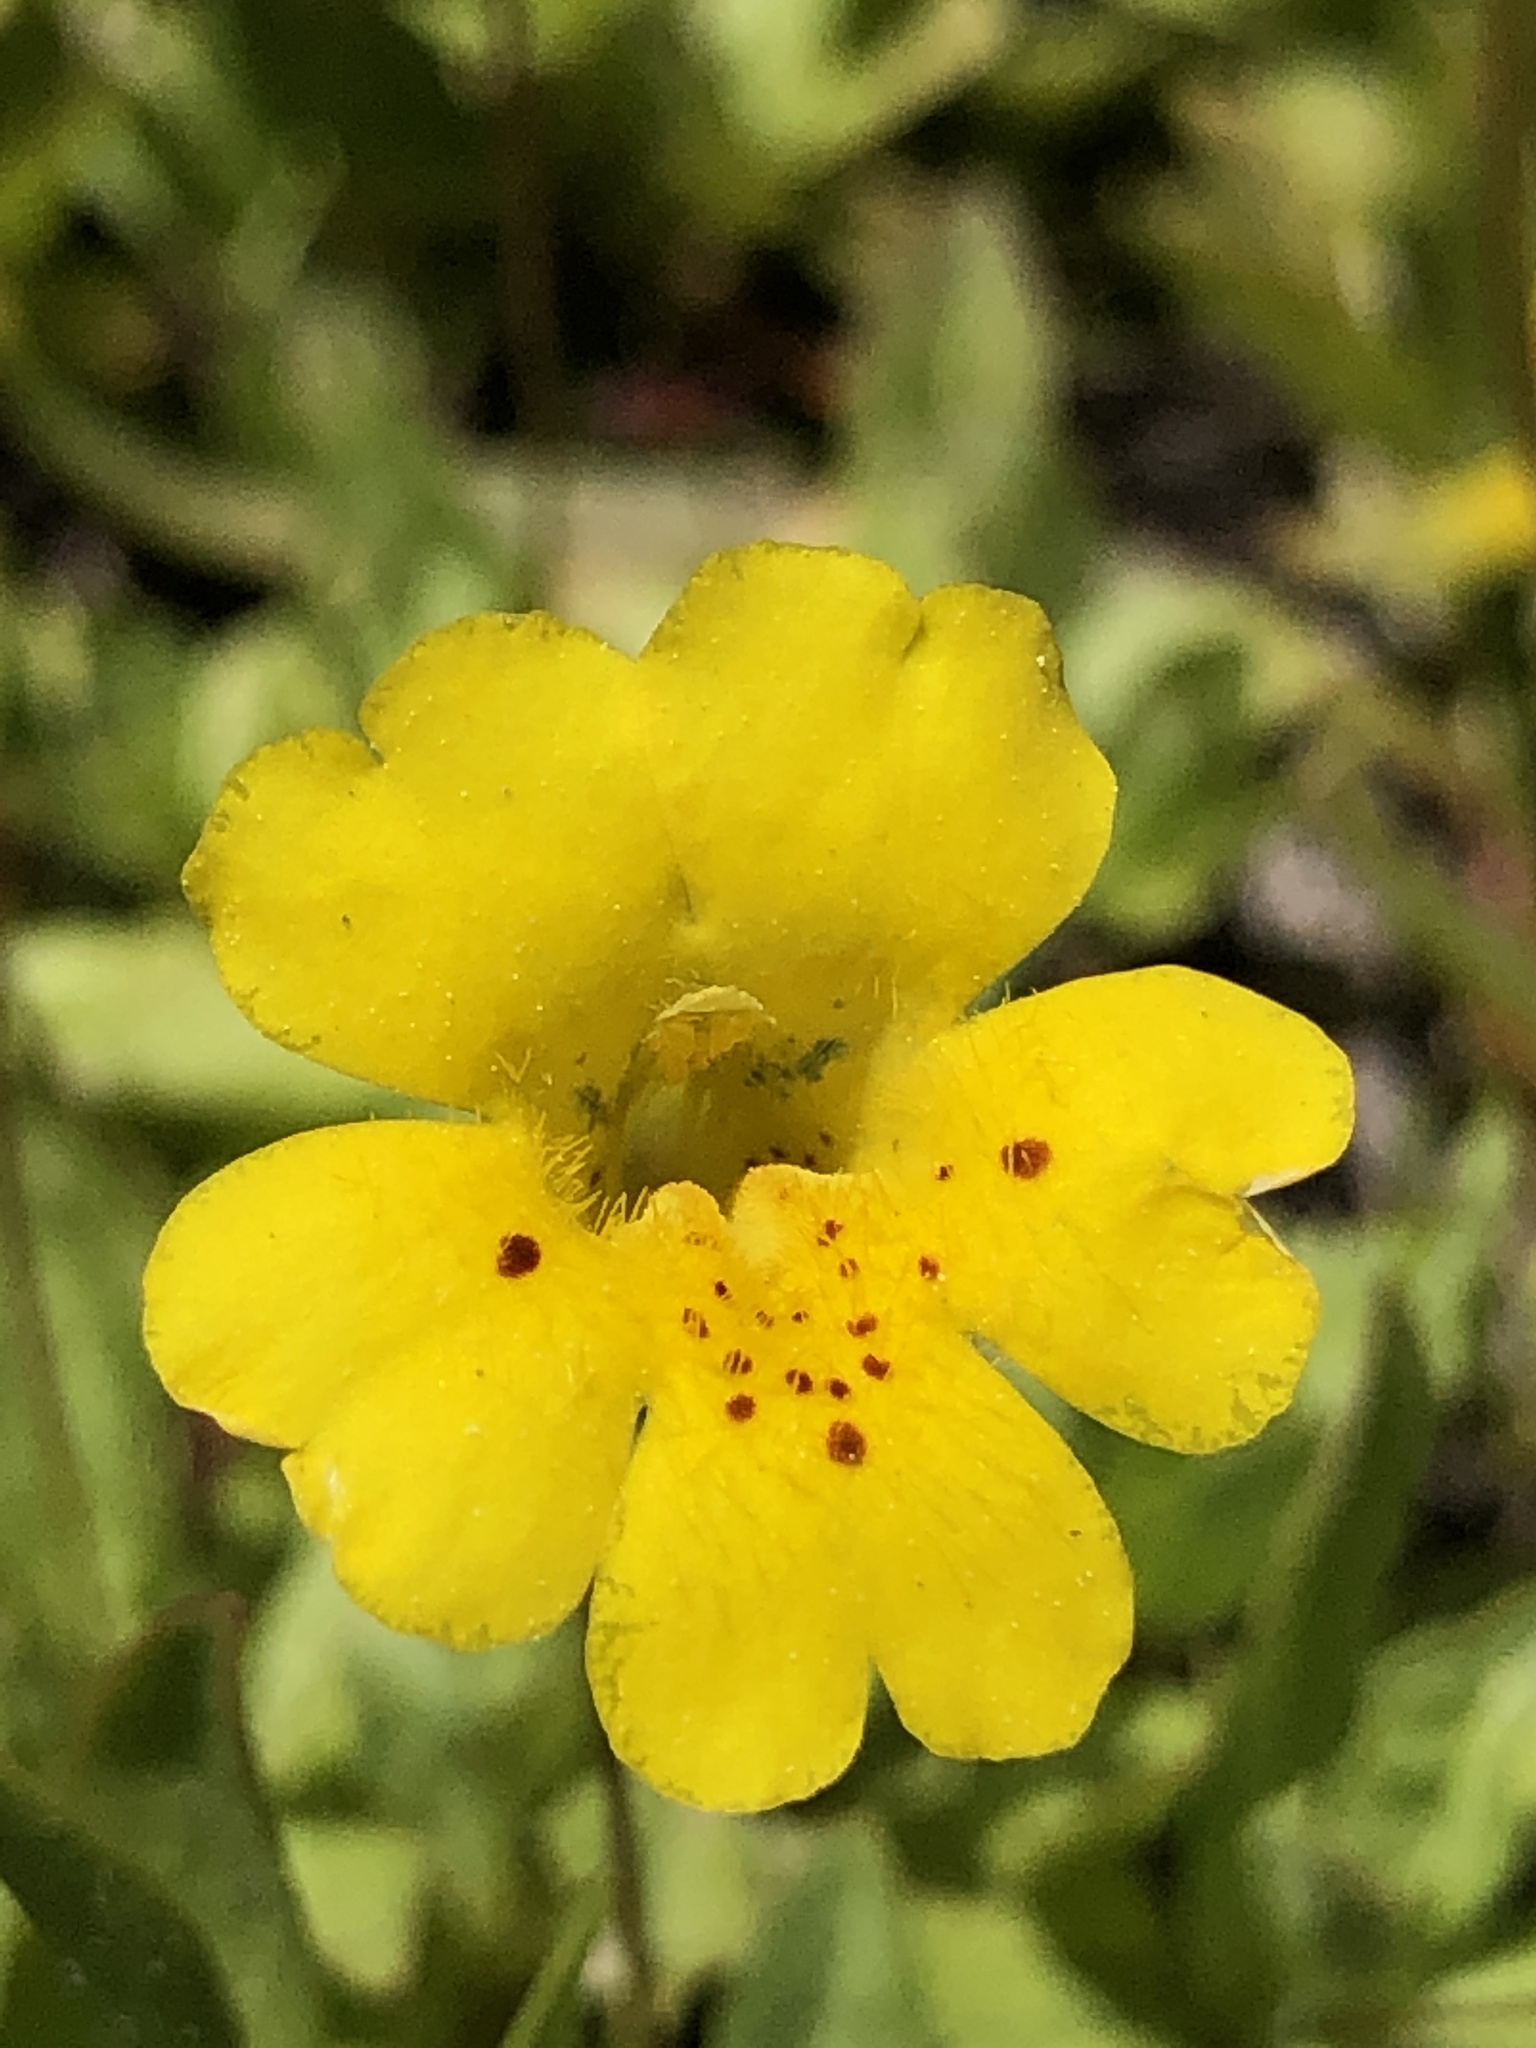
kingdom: Plantae
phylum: Tracheophyta
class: Magnoliopsida
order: Lamiales
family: Phrymaceae
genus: Erythranthe
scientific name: Erythranthe primuloides
